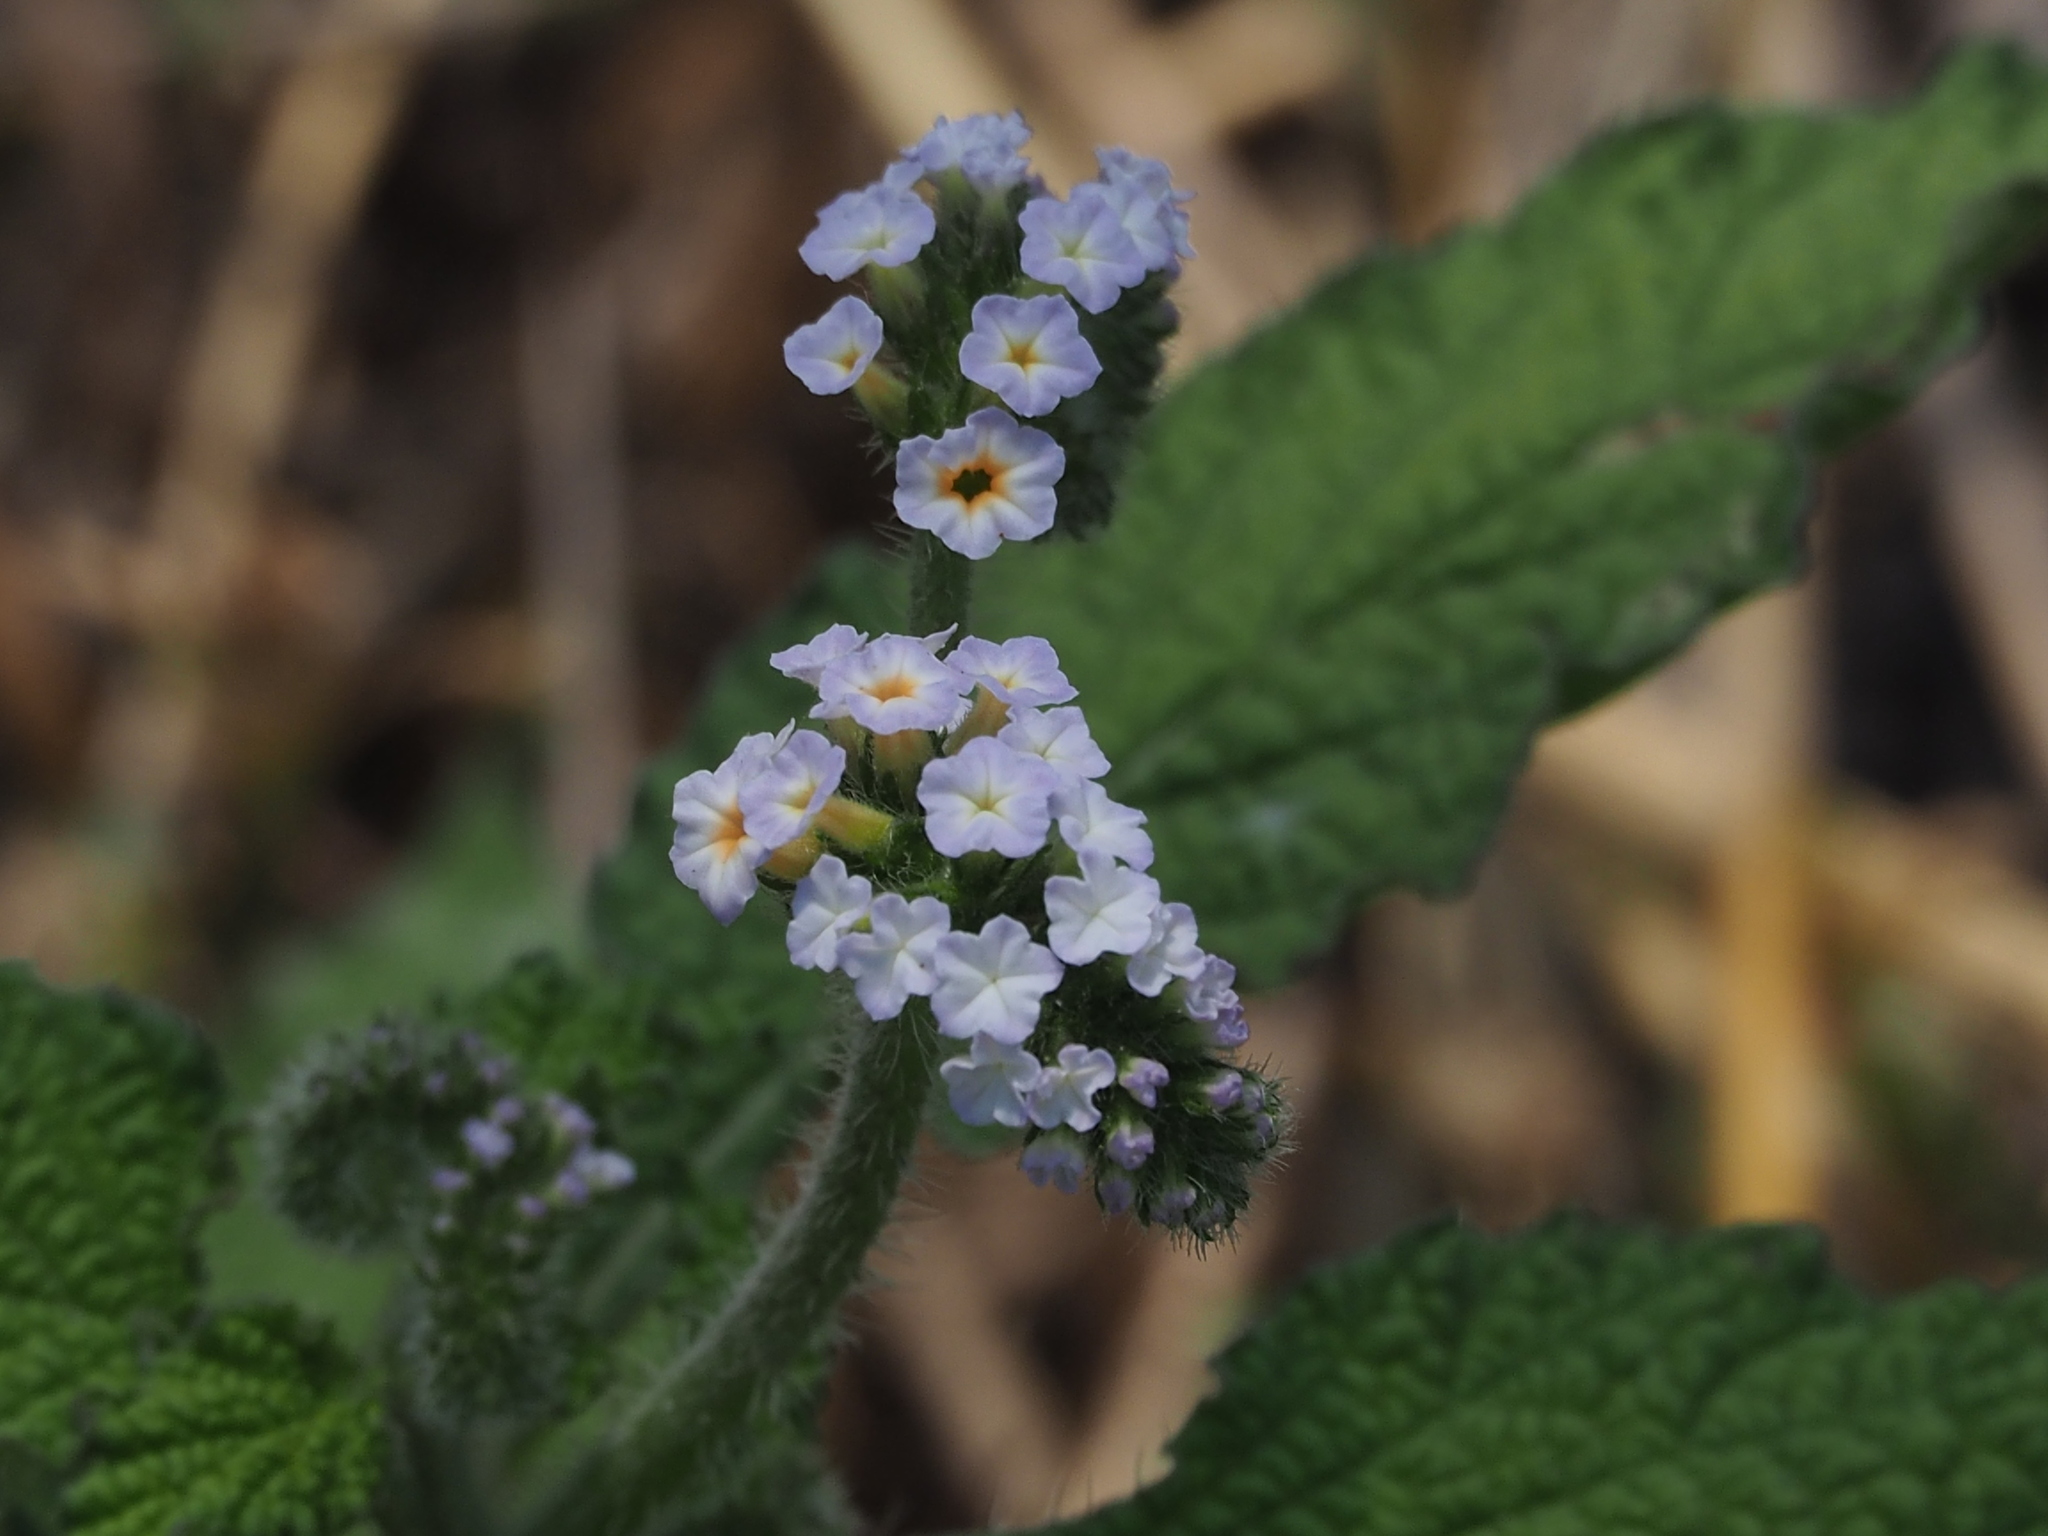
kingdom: Plantae
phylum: Tracheophyta
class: Magnoliopsida
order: Boraginales
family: Heliotropiaceae
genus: Heliotropium
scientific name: Heliotropium indicum
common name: Indian heliotrope
